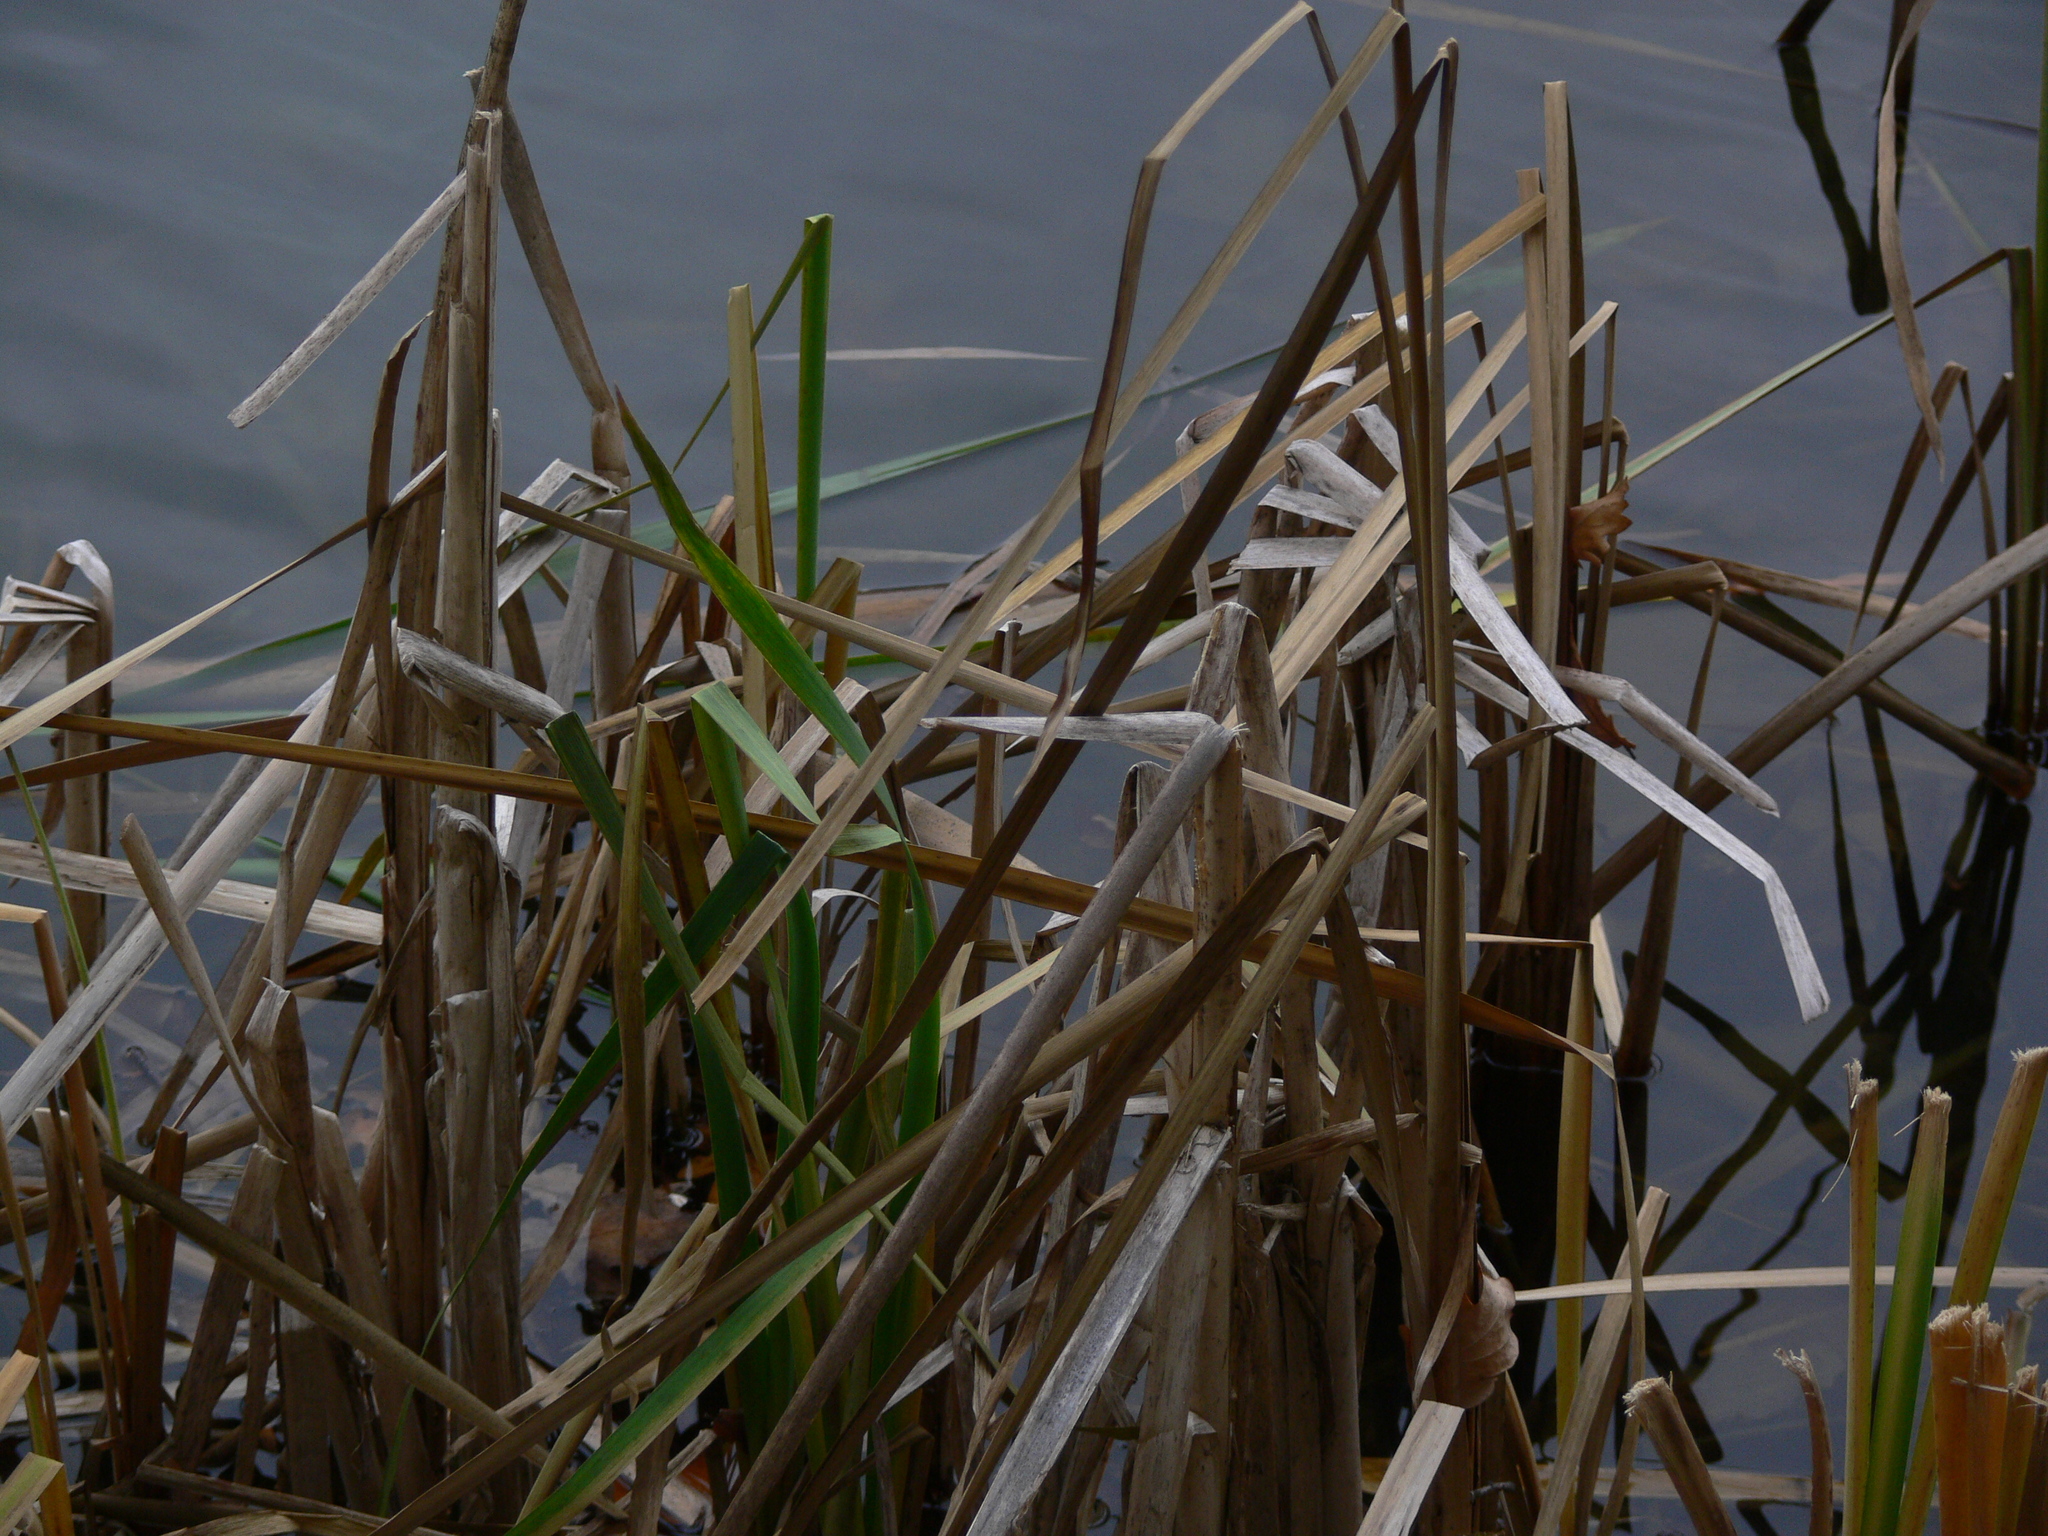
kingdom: Plantae
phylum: Tracheophyta
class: Liliopsida
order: Poales
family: Typhaceae
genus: Typha
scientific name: Typha latifolia
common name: Broadleaf cattail
